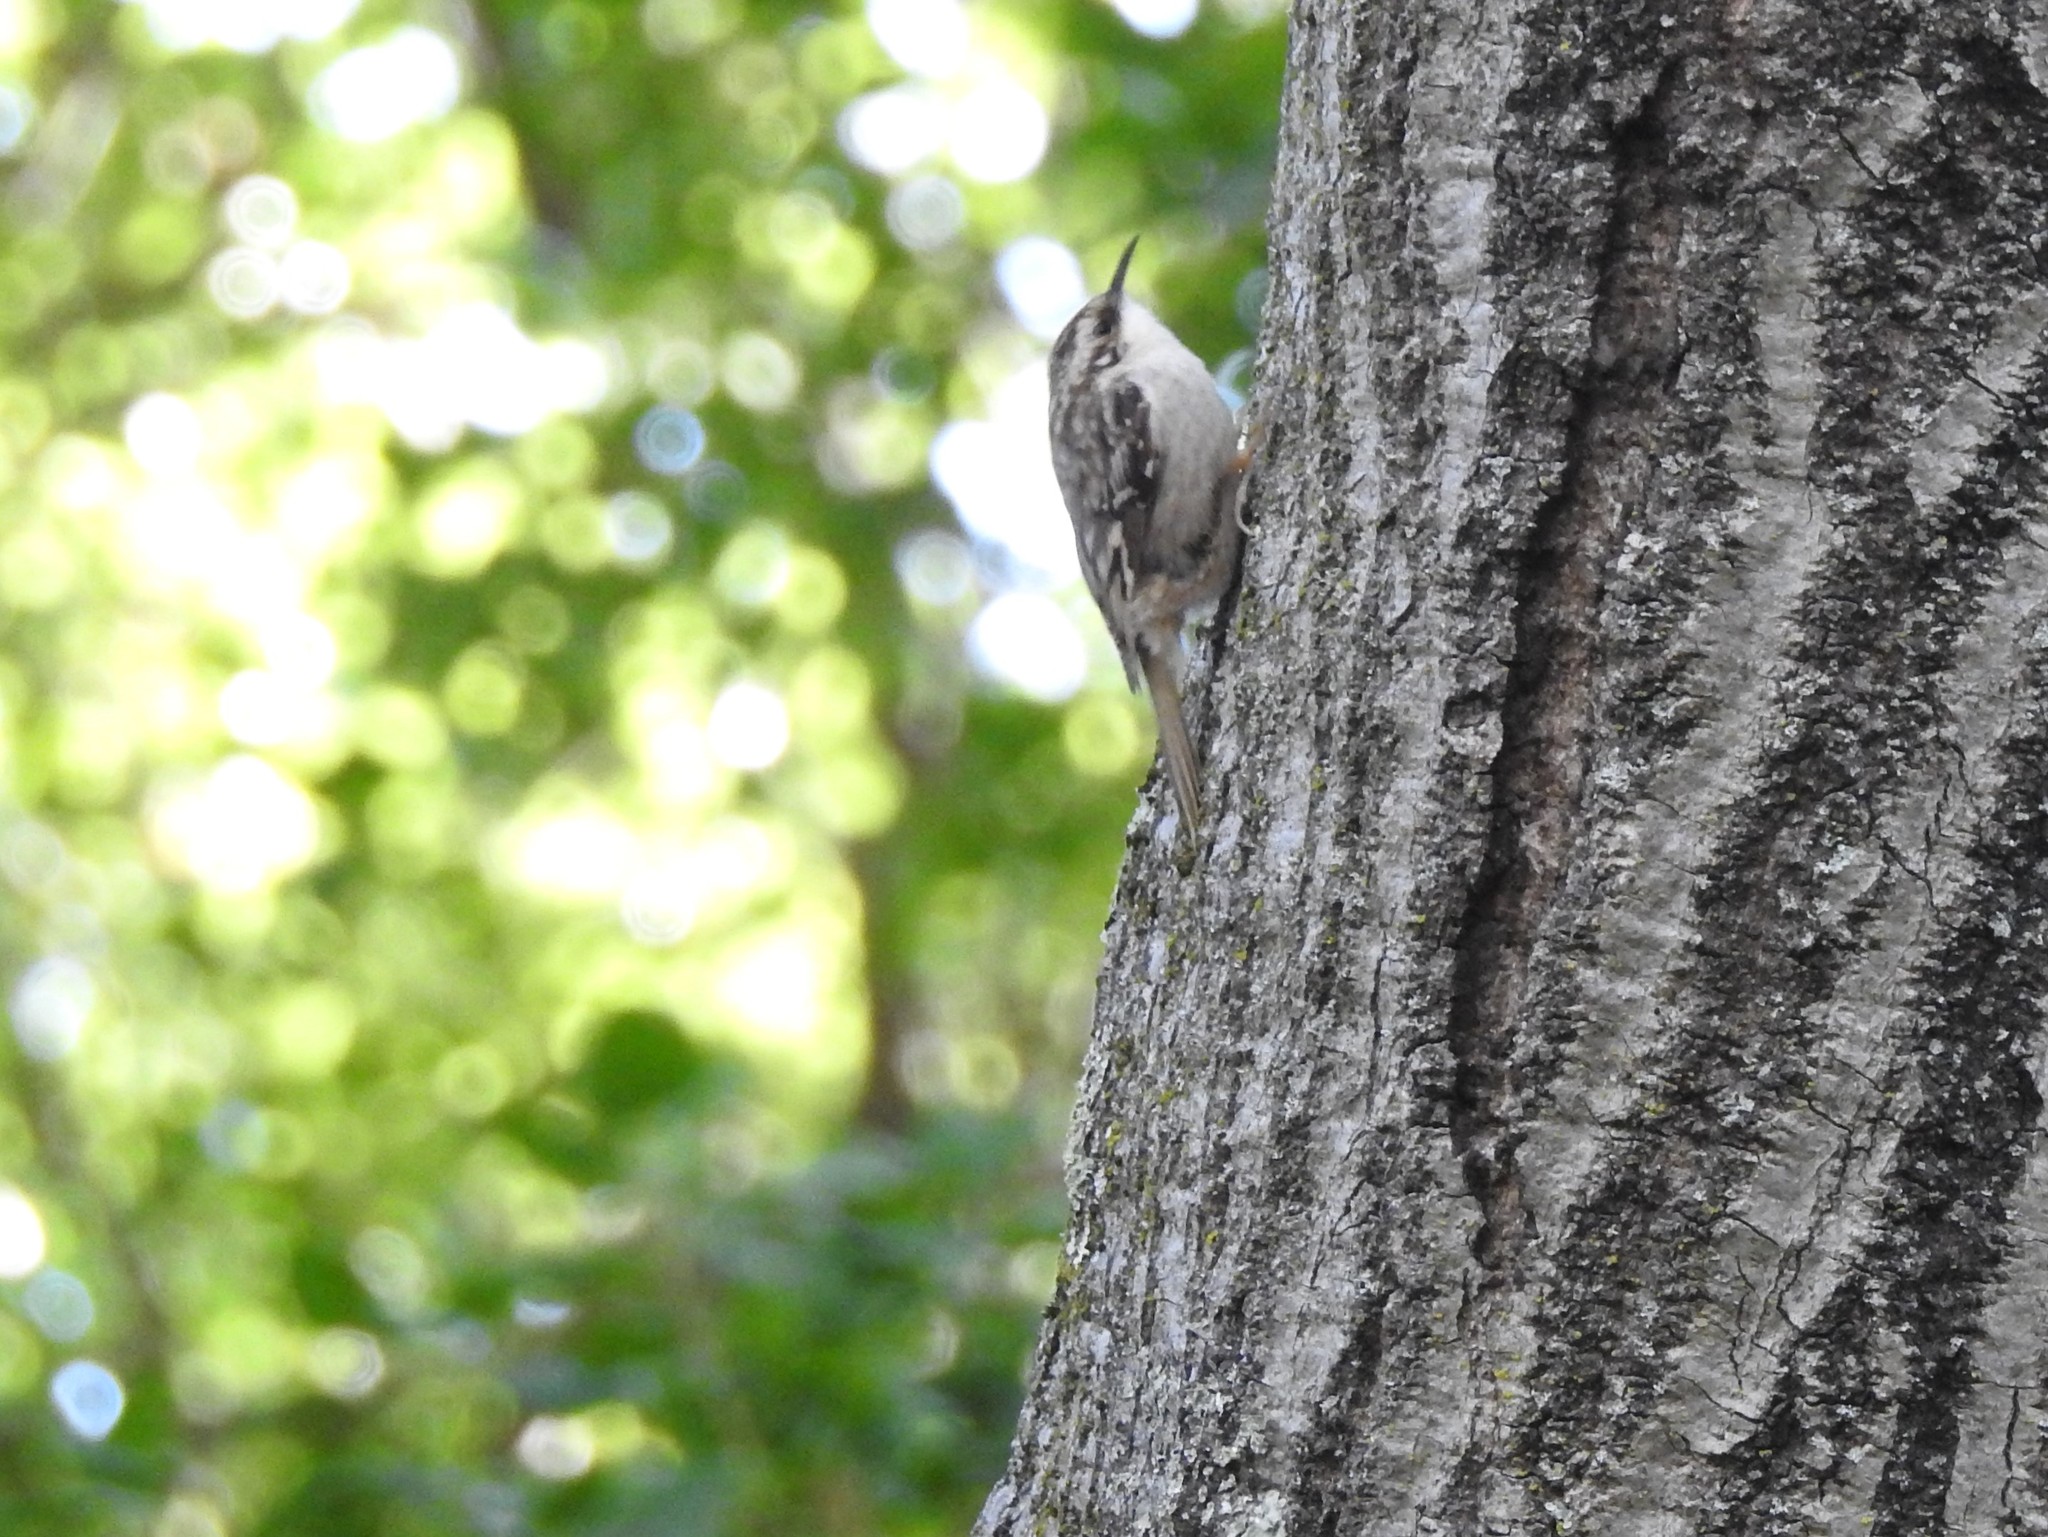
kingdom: Animalia
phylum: Chordata
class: Aves
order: Passeriformes
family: Certhiidae
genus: Certhia
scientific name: Certhia americana
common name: Brown creeper
